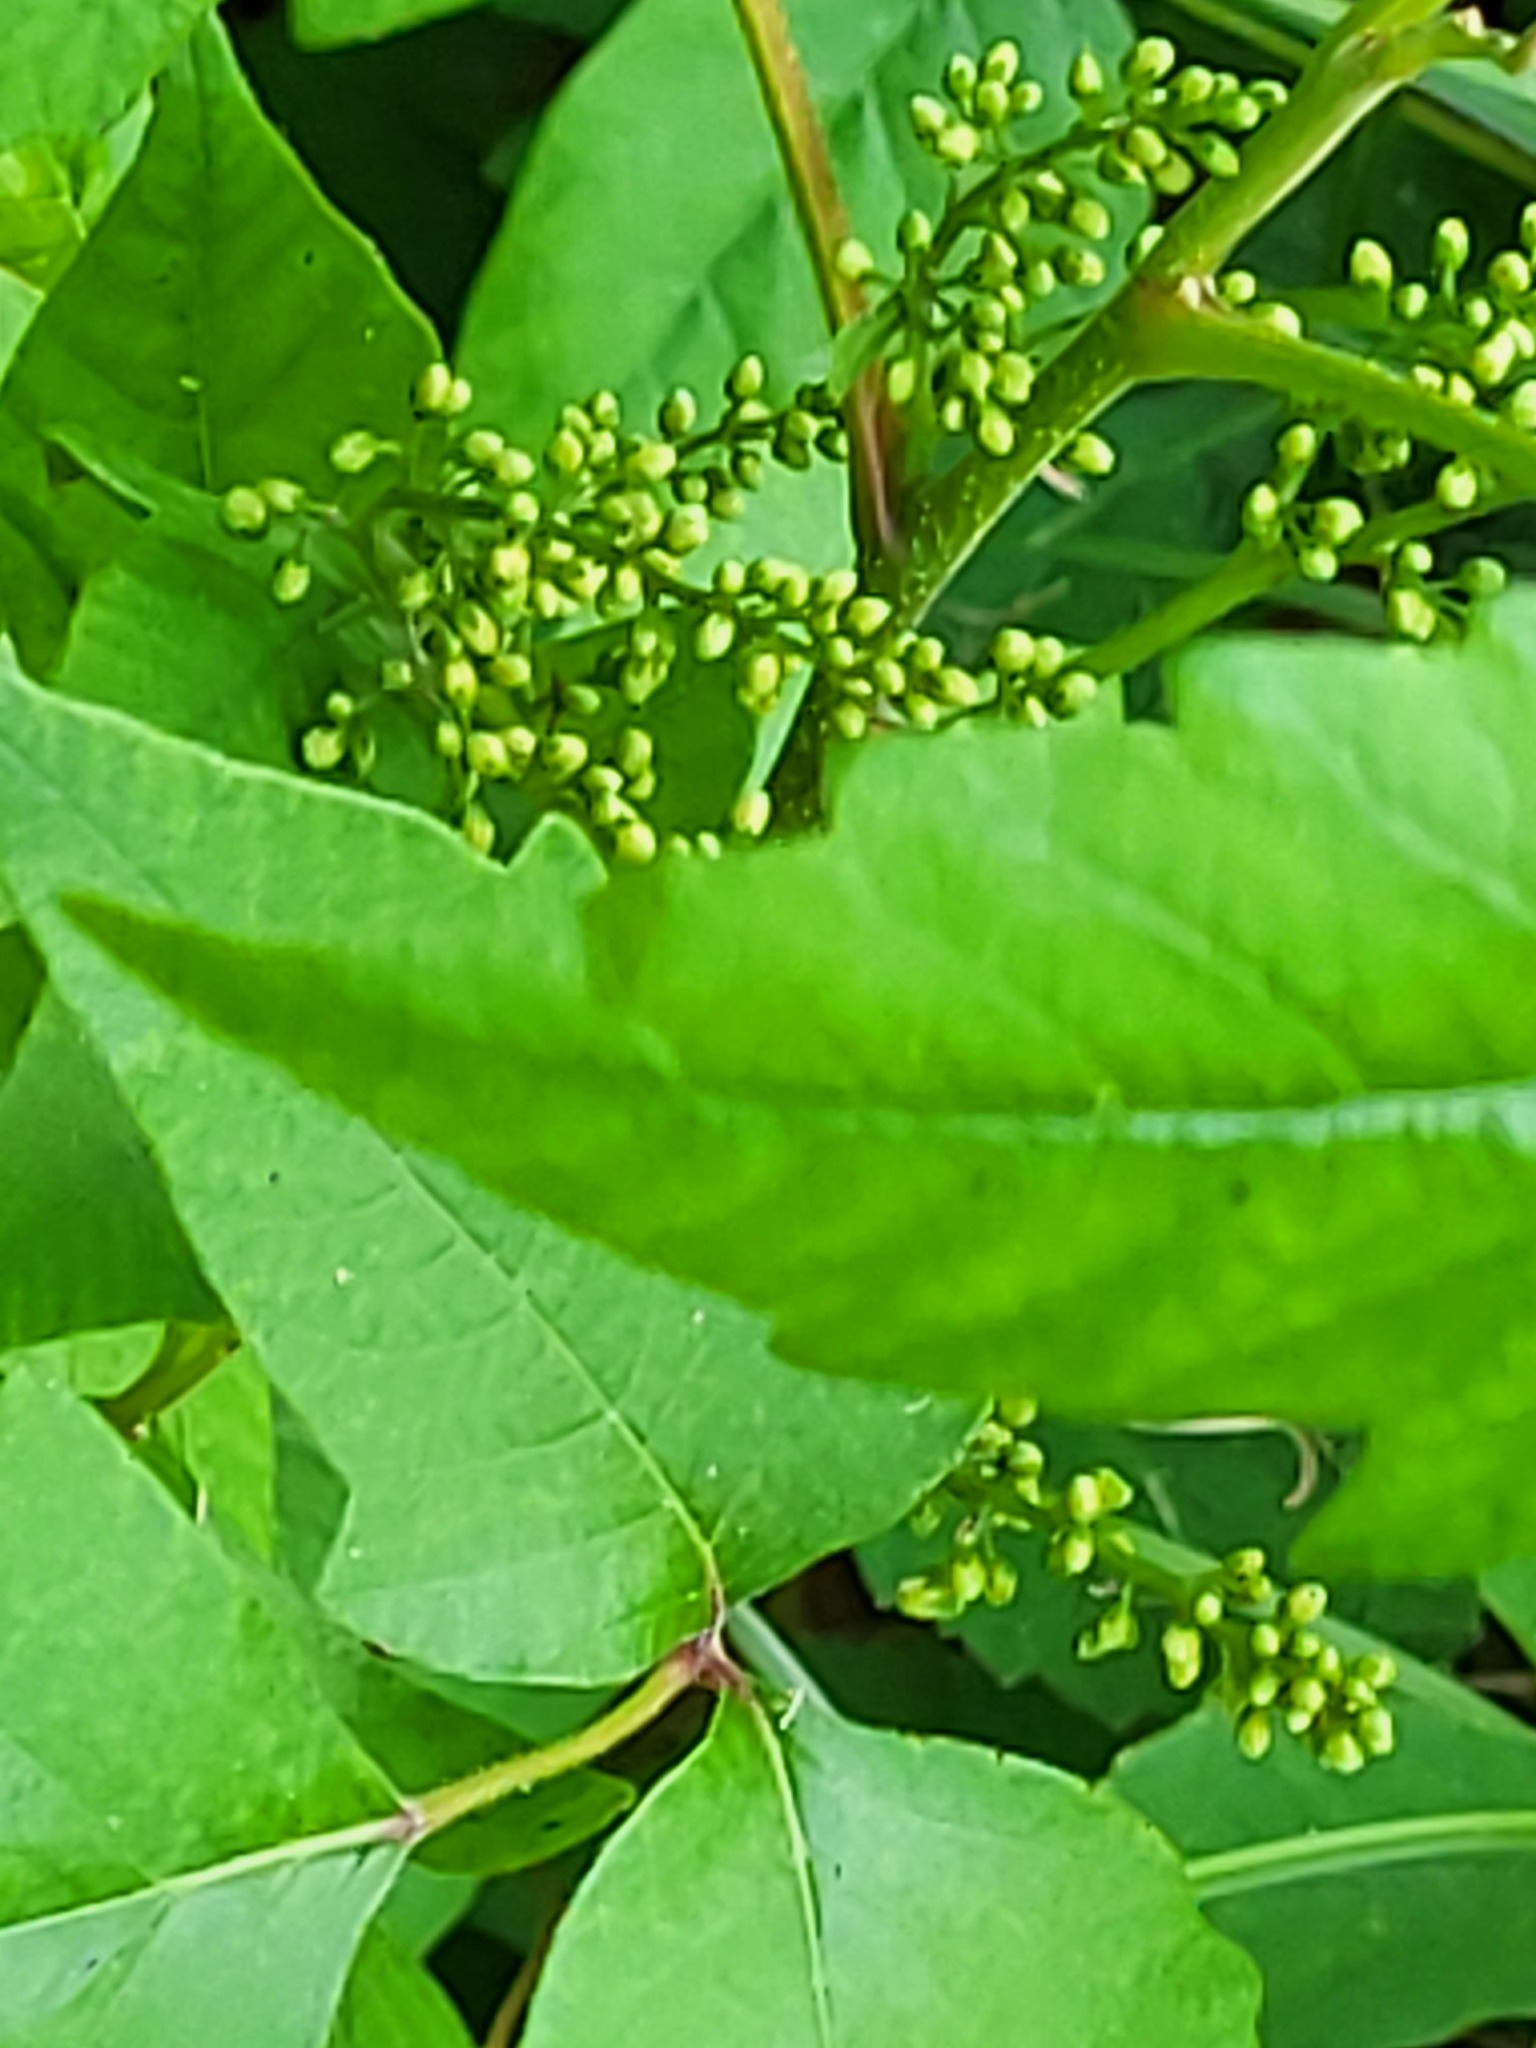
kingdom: Plantae
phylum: Tracheophyta
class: Magnoliopsida
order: Sapindales
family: Anacardiaceae
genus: Toxicodendron
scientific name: Toxicodendron radicans
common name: Poison ivy
